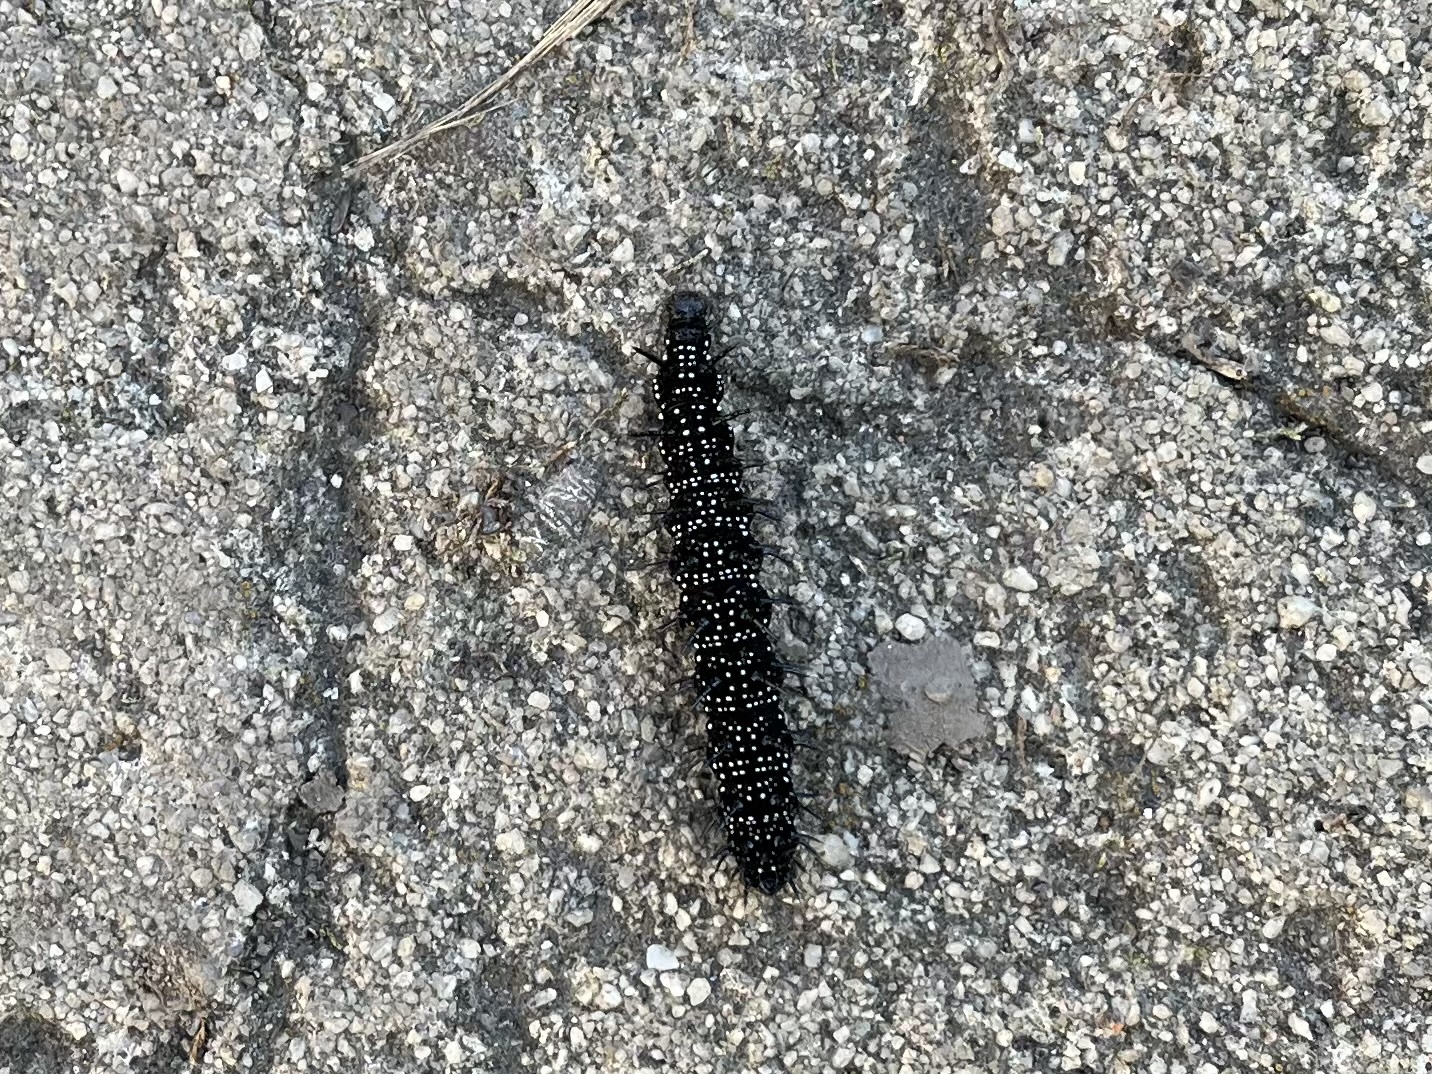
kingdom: Animalia
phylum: Arthropoda
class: Insecta
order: Lepidoptera
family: Nymphalidae
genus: Aglais
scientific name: Aglais io
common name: Peacock
